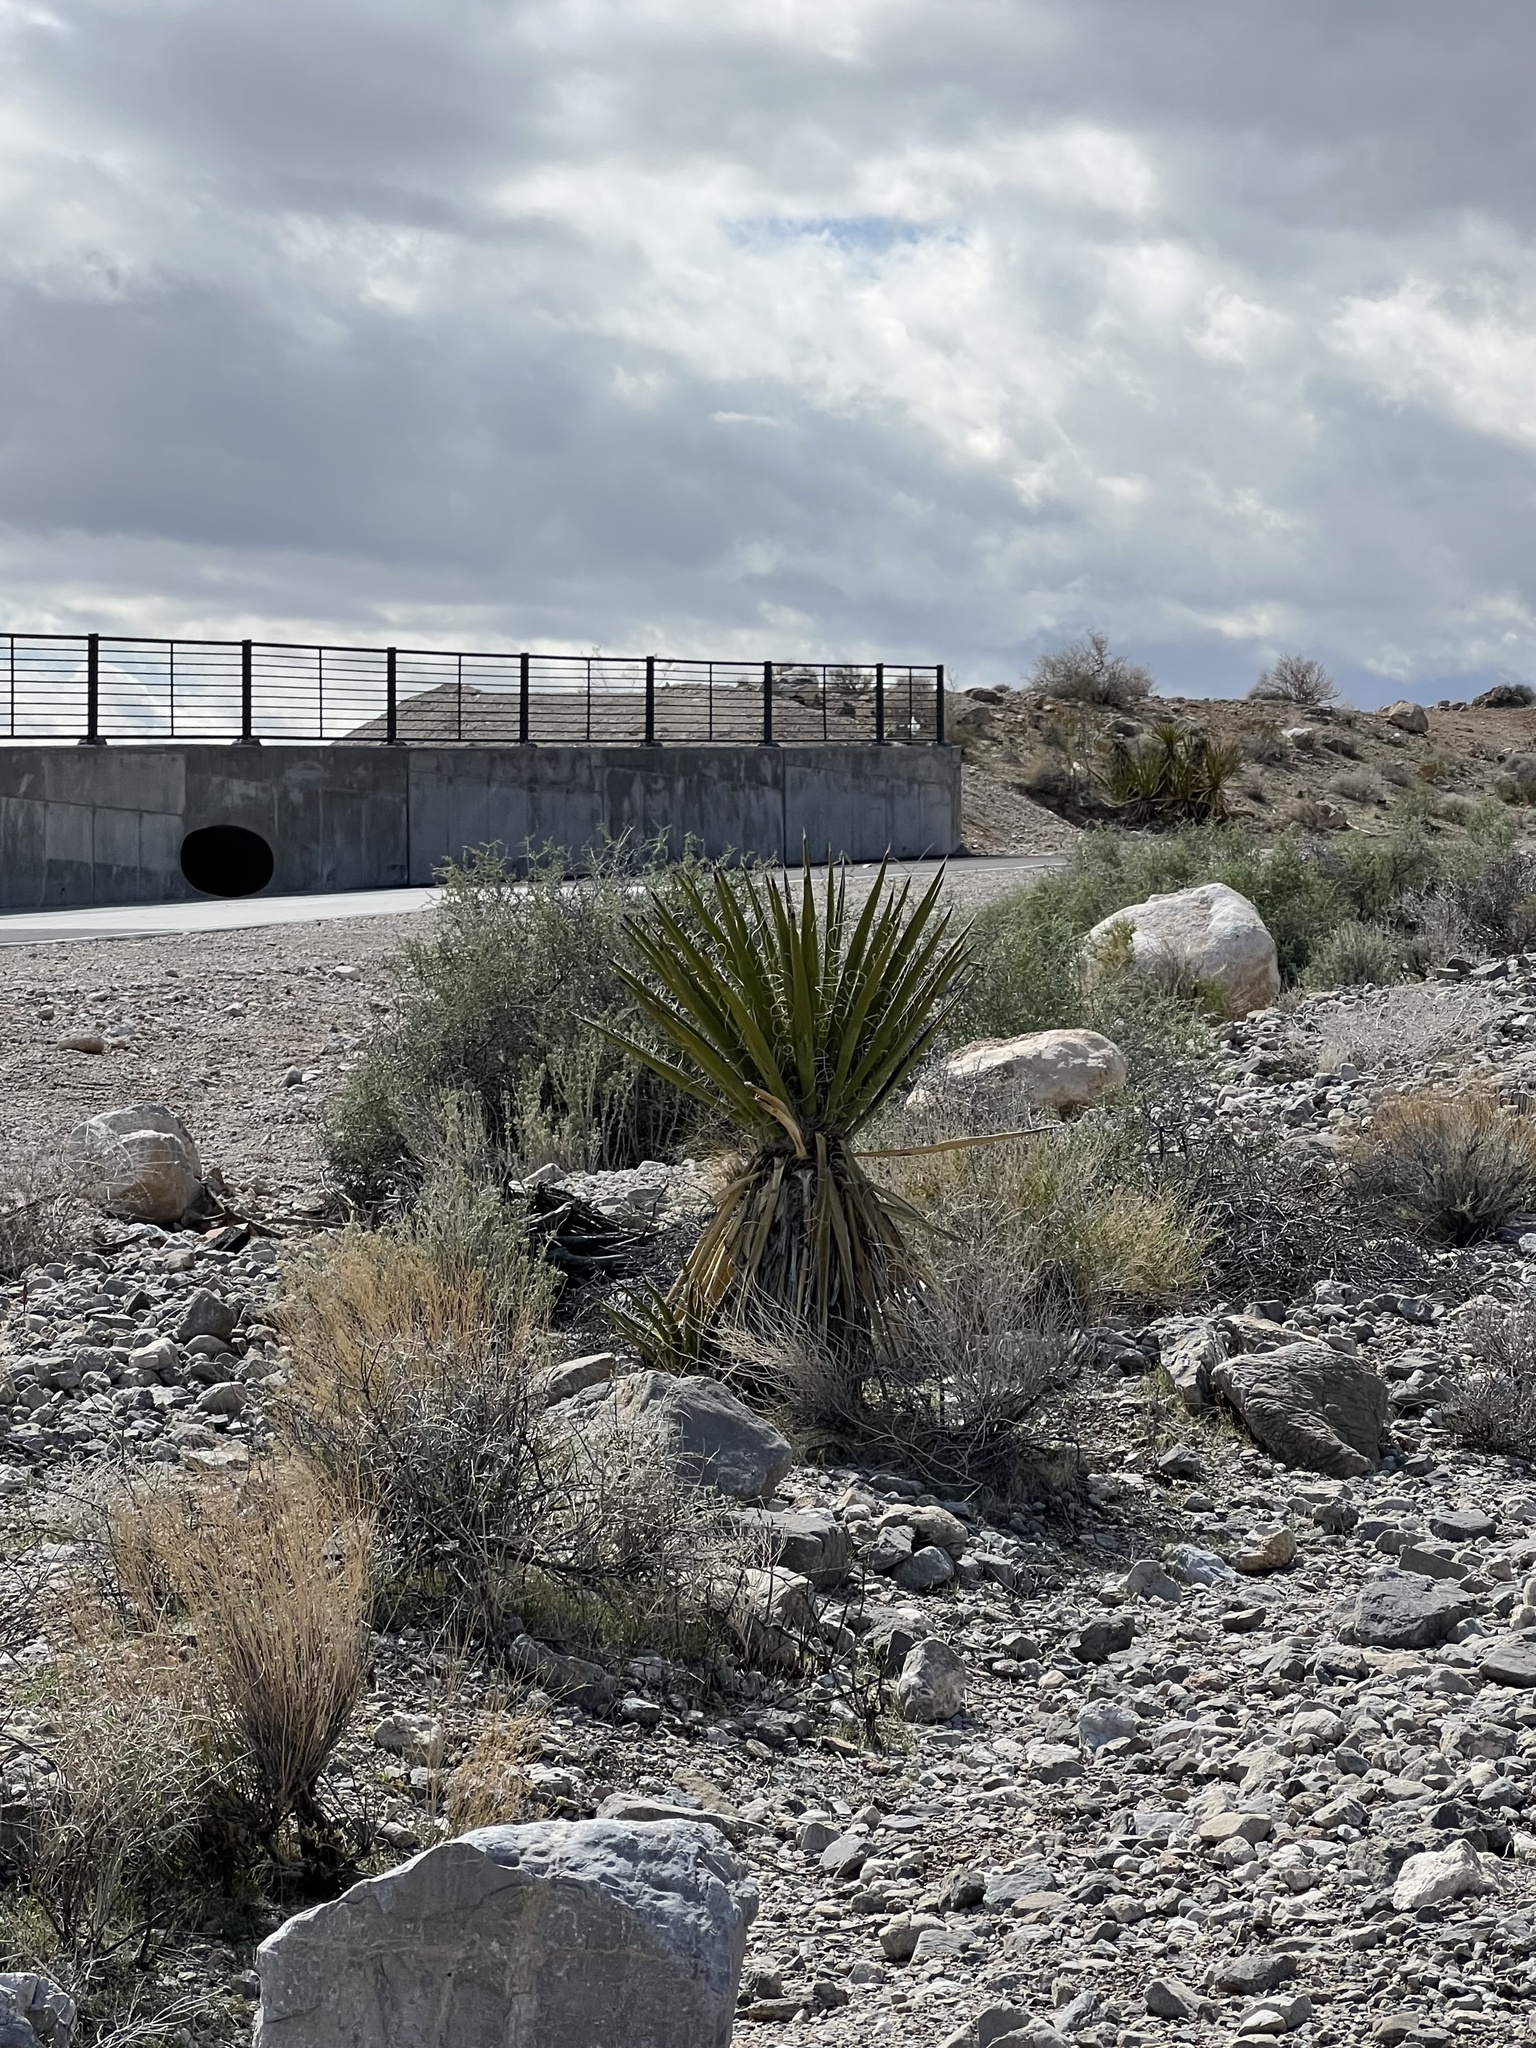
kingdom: Plantae
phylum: Tracheophyta
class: Liliopsida
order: Asparagales
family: Asparagaceae
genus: Yucca
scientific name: Yucca schidigera
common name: Mojave yucca
